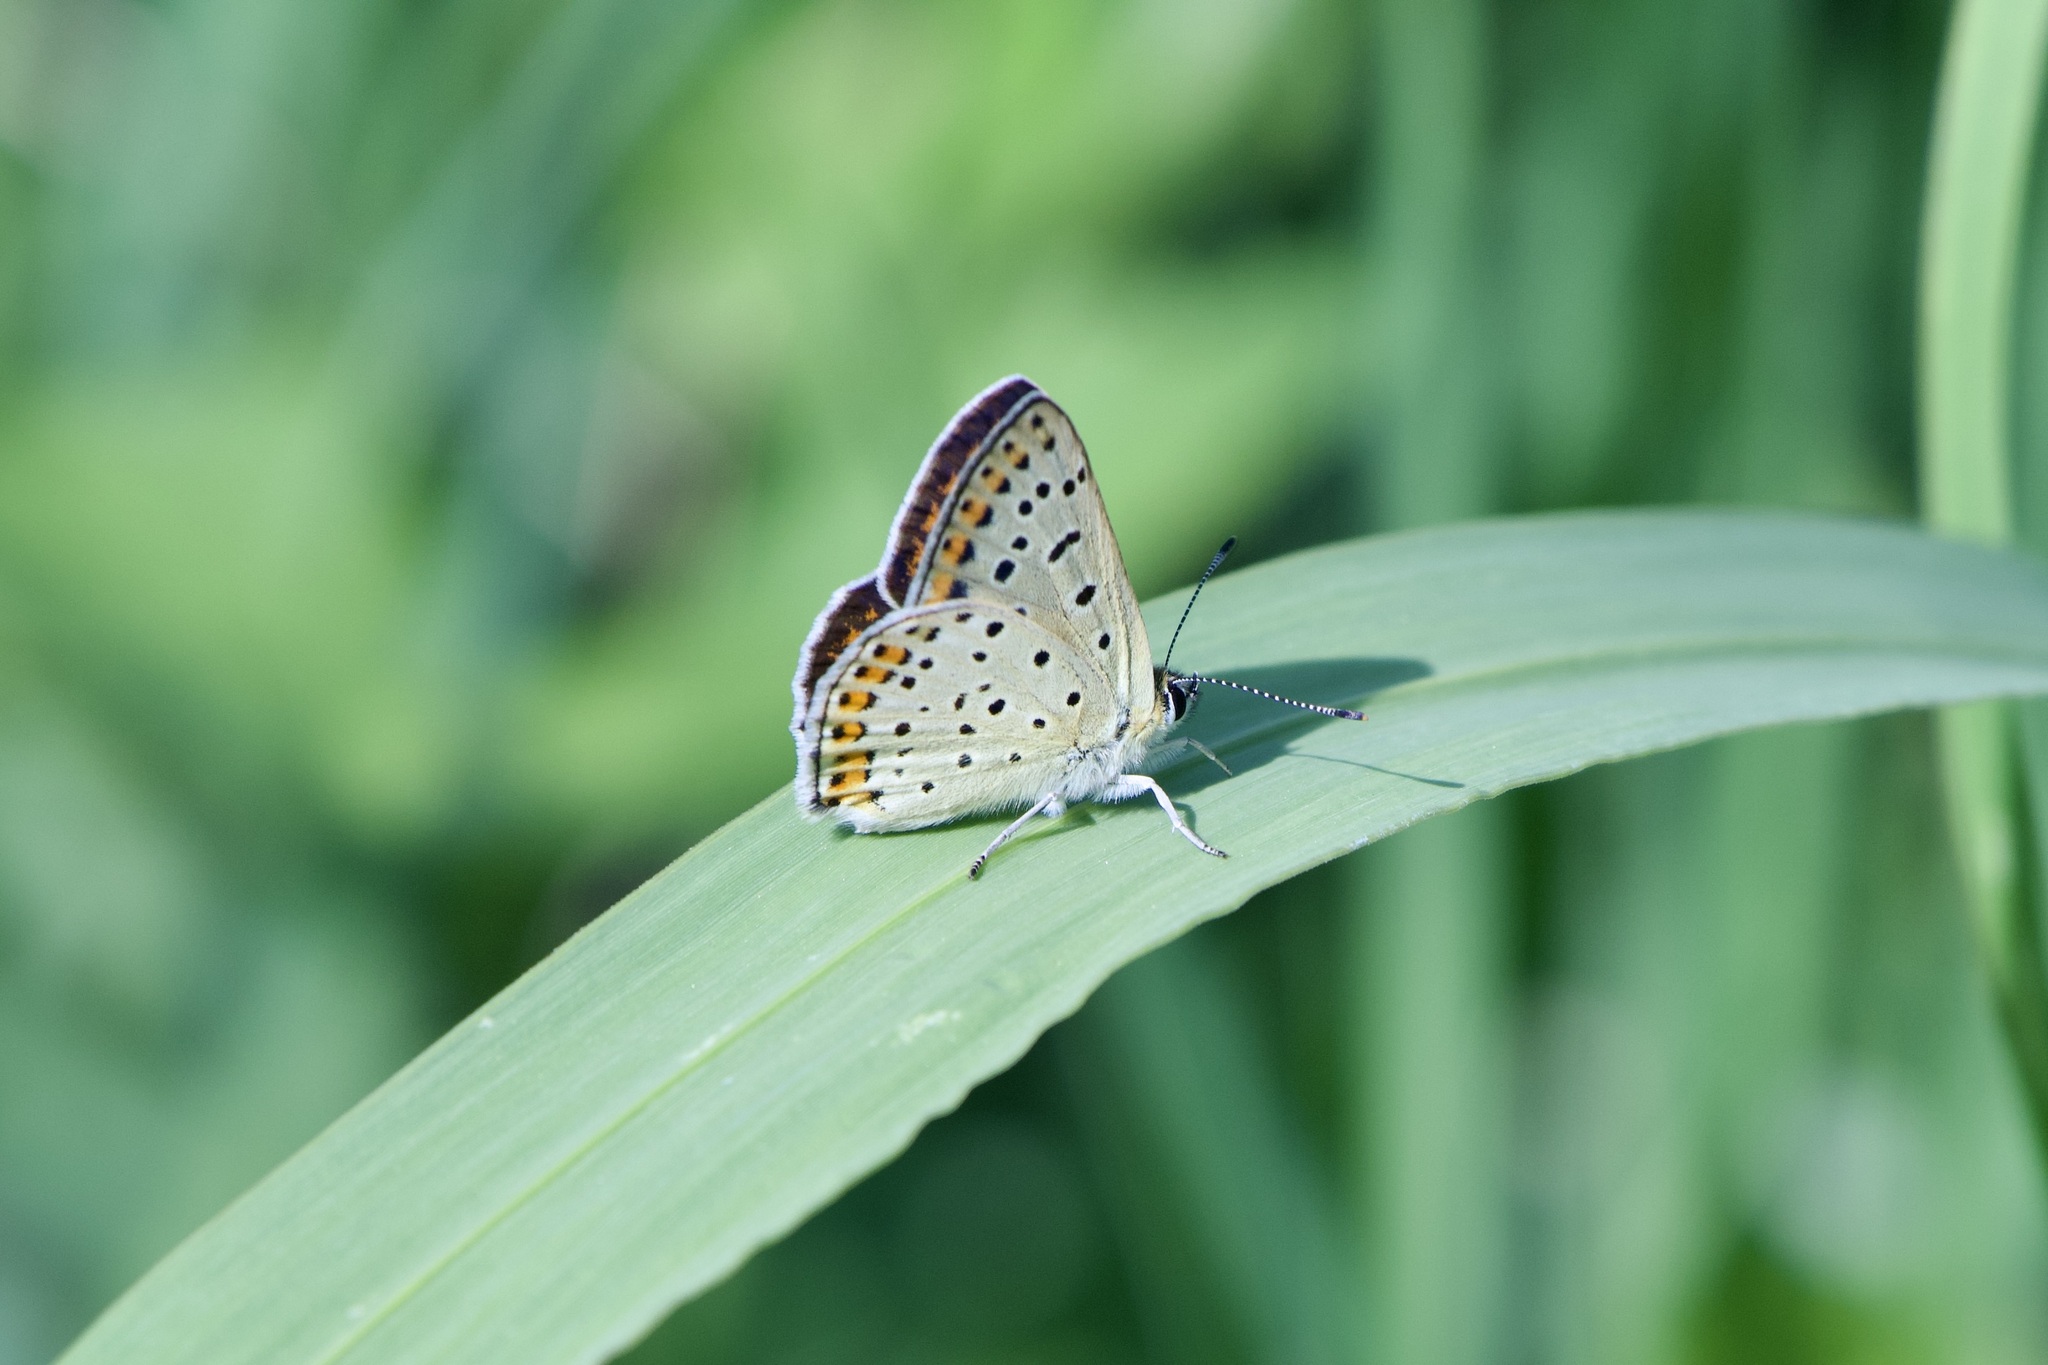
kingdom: Animalia
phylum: Arthropoda
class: Insecta
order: Lepidoptera
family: Lycaenidae
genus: Loweia
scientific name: Loweia tityrus
